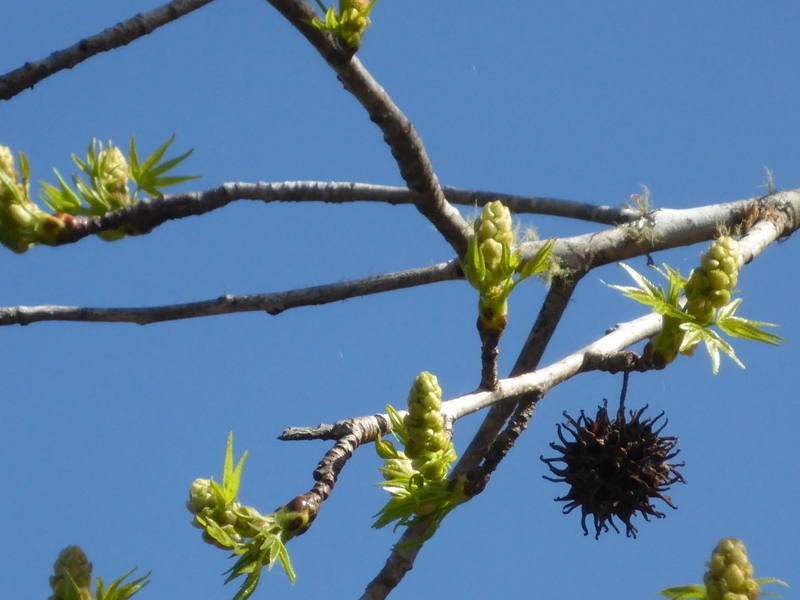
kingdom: Plantae
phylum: Tracheophyta
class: Magnoliopsida
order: Saxifragales
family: Altingiaceae
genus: Liquidambar
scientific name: Liquidambar styraciflua
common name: Sweet gum
